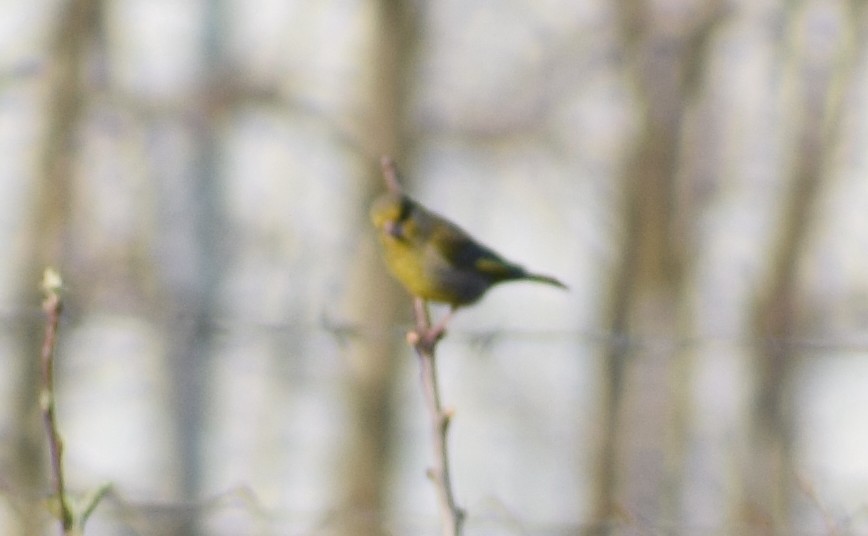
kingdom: Plantae
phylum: Tracheophyta
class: Liliopsida
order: Poales
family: Poaceae
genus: Chloris
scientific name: Chloris chloris
